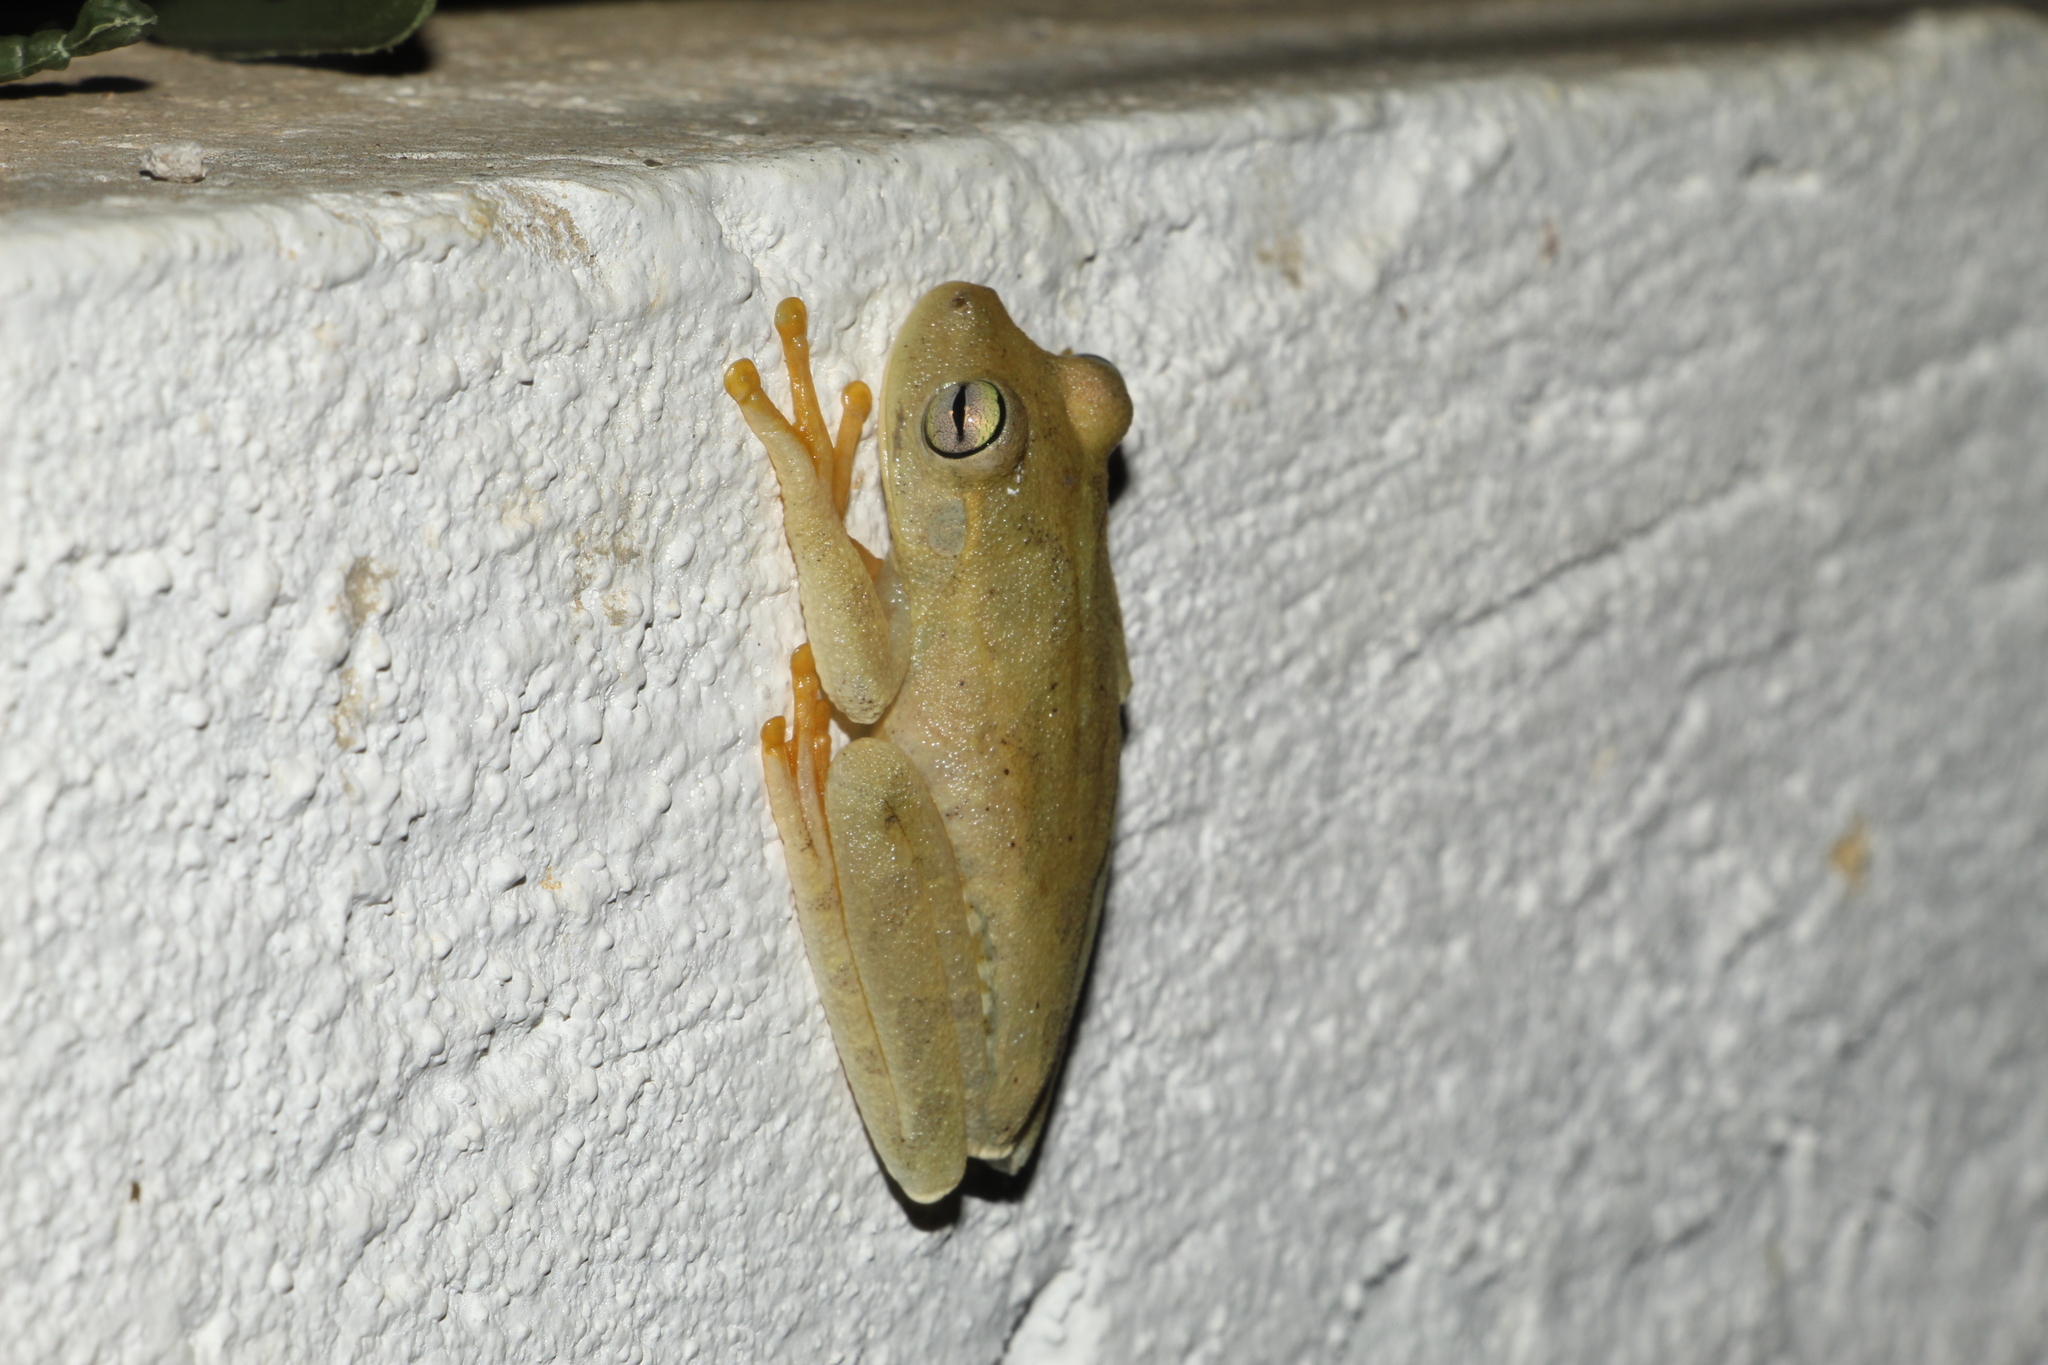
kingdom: Animalia
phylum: Chordata
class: Amphibia
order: Anura
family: Hylidae
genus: Boana
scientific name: Boana platanera
